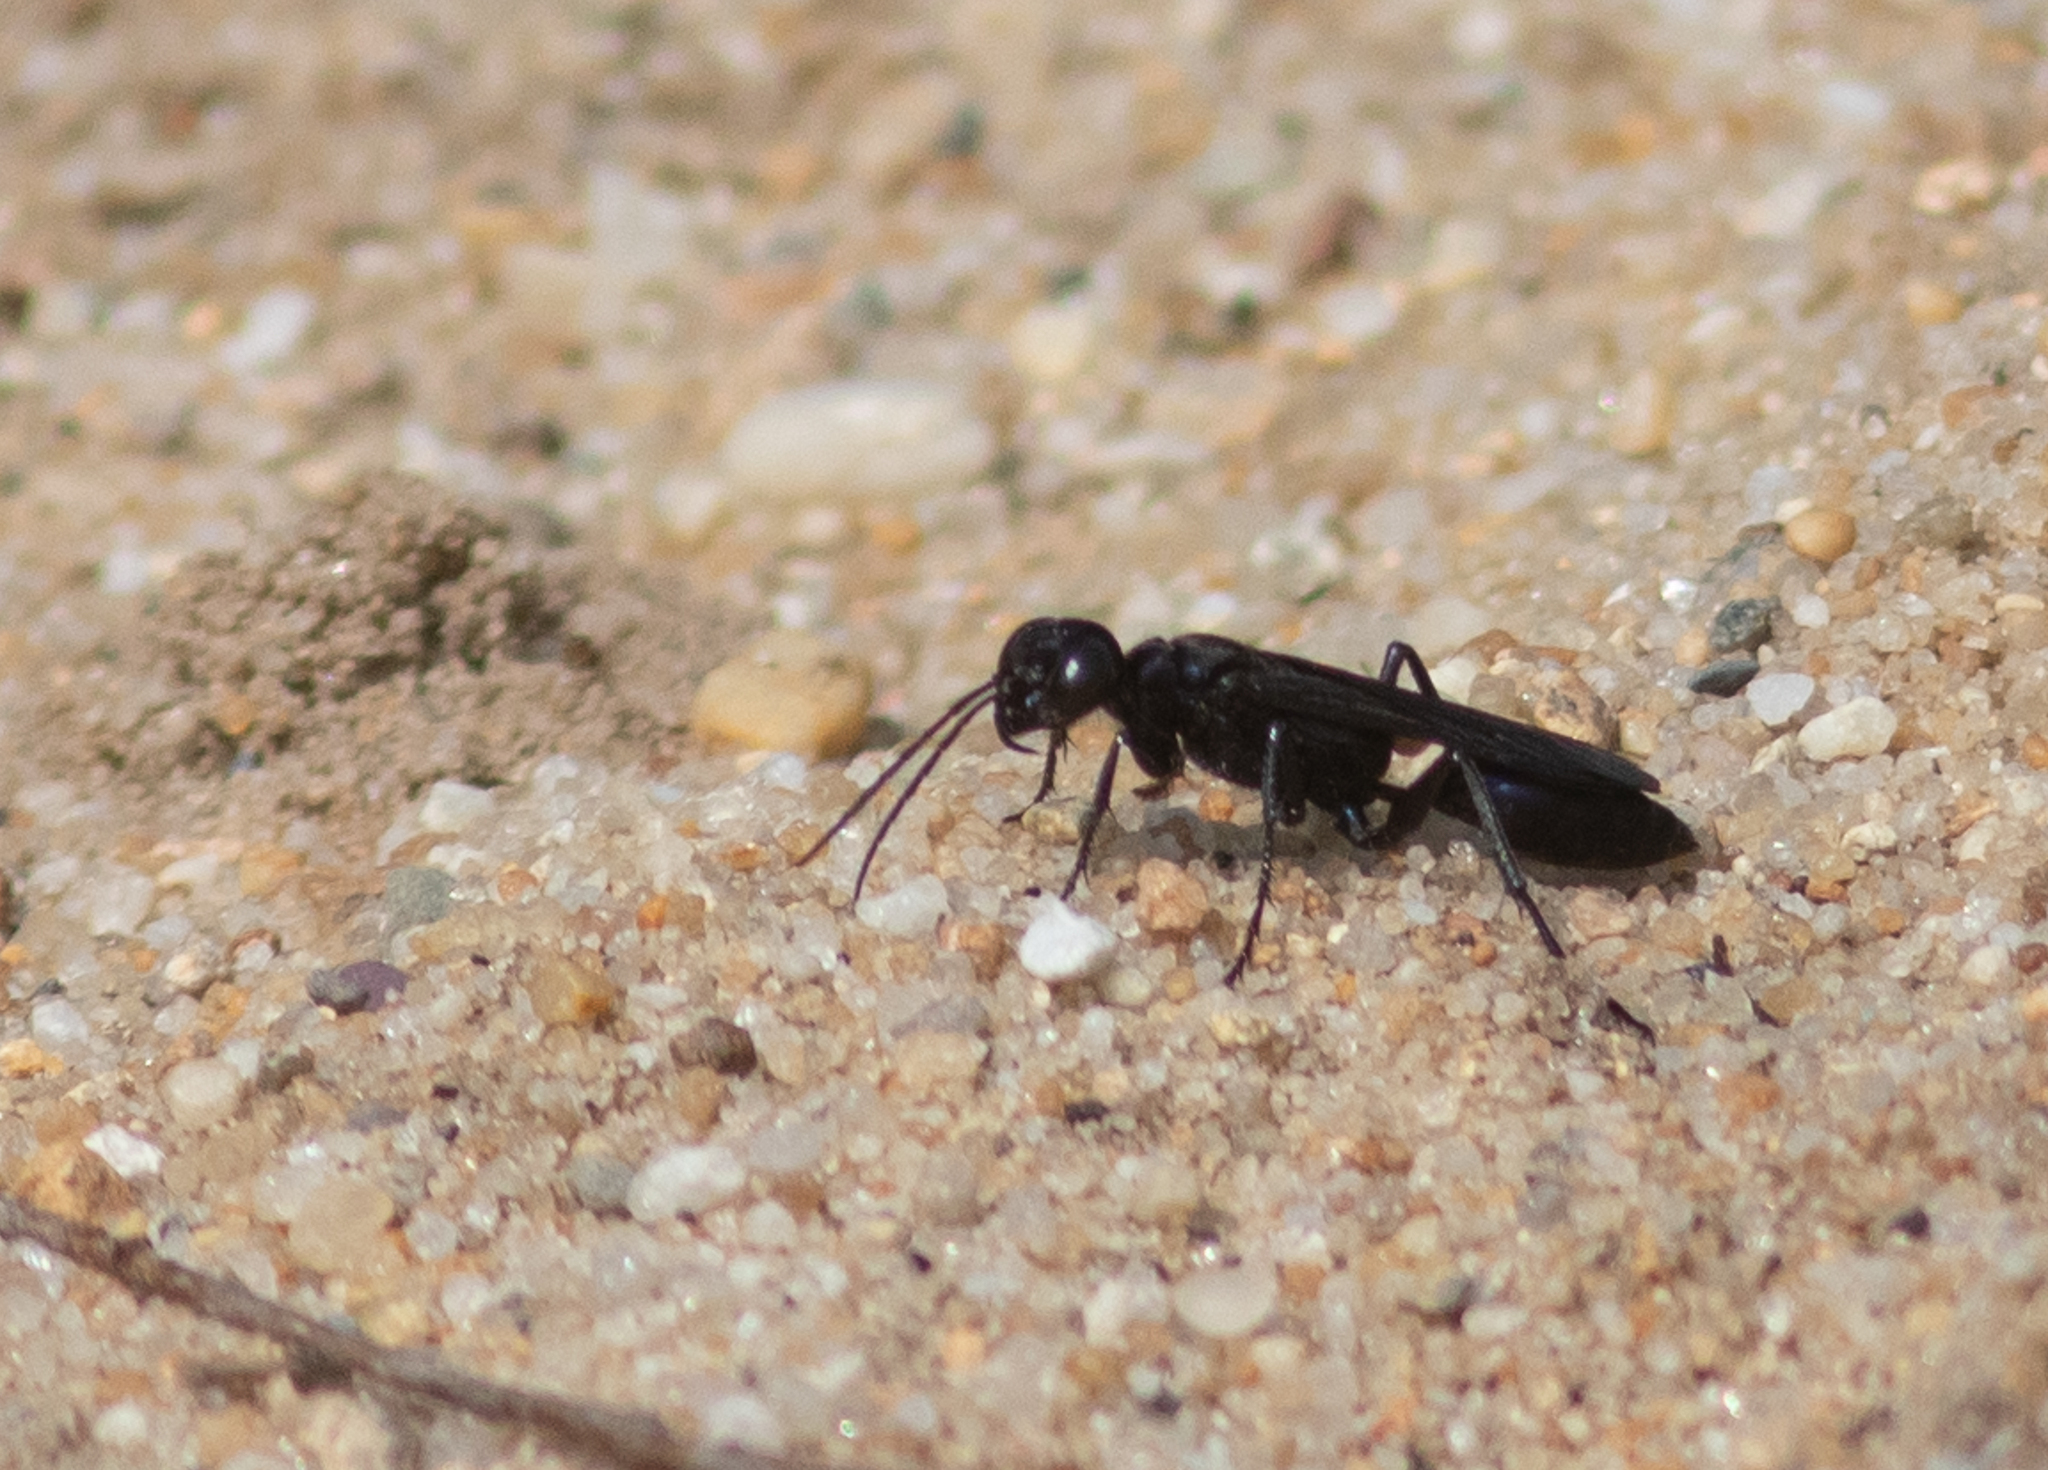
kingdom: Animalia
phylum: Arthropoda
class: Insecta
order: Hymenoptera
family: Sphecidae
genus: Chlorion
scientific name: Chlorion aerarium
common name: Steel-blue cricket hunter
